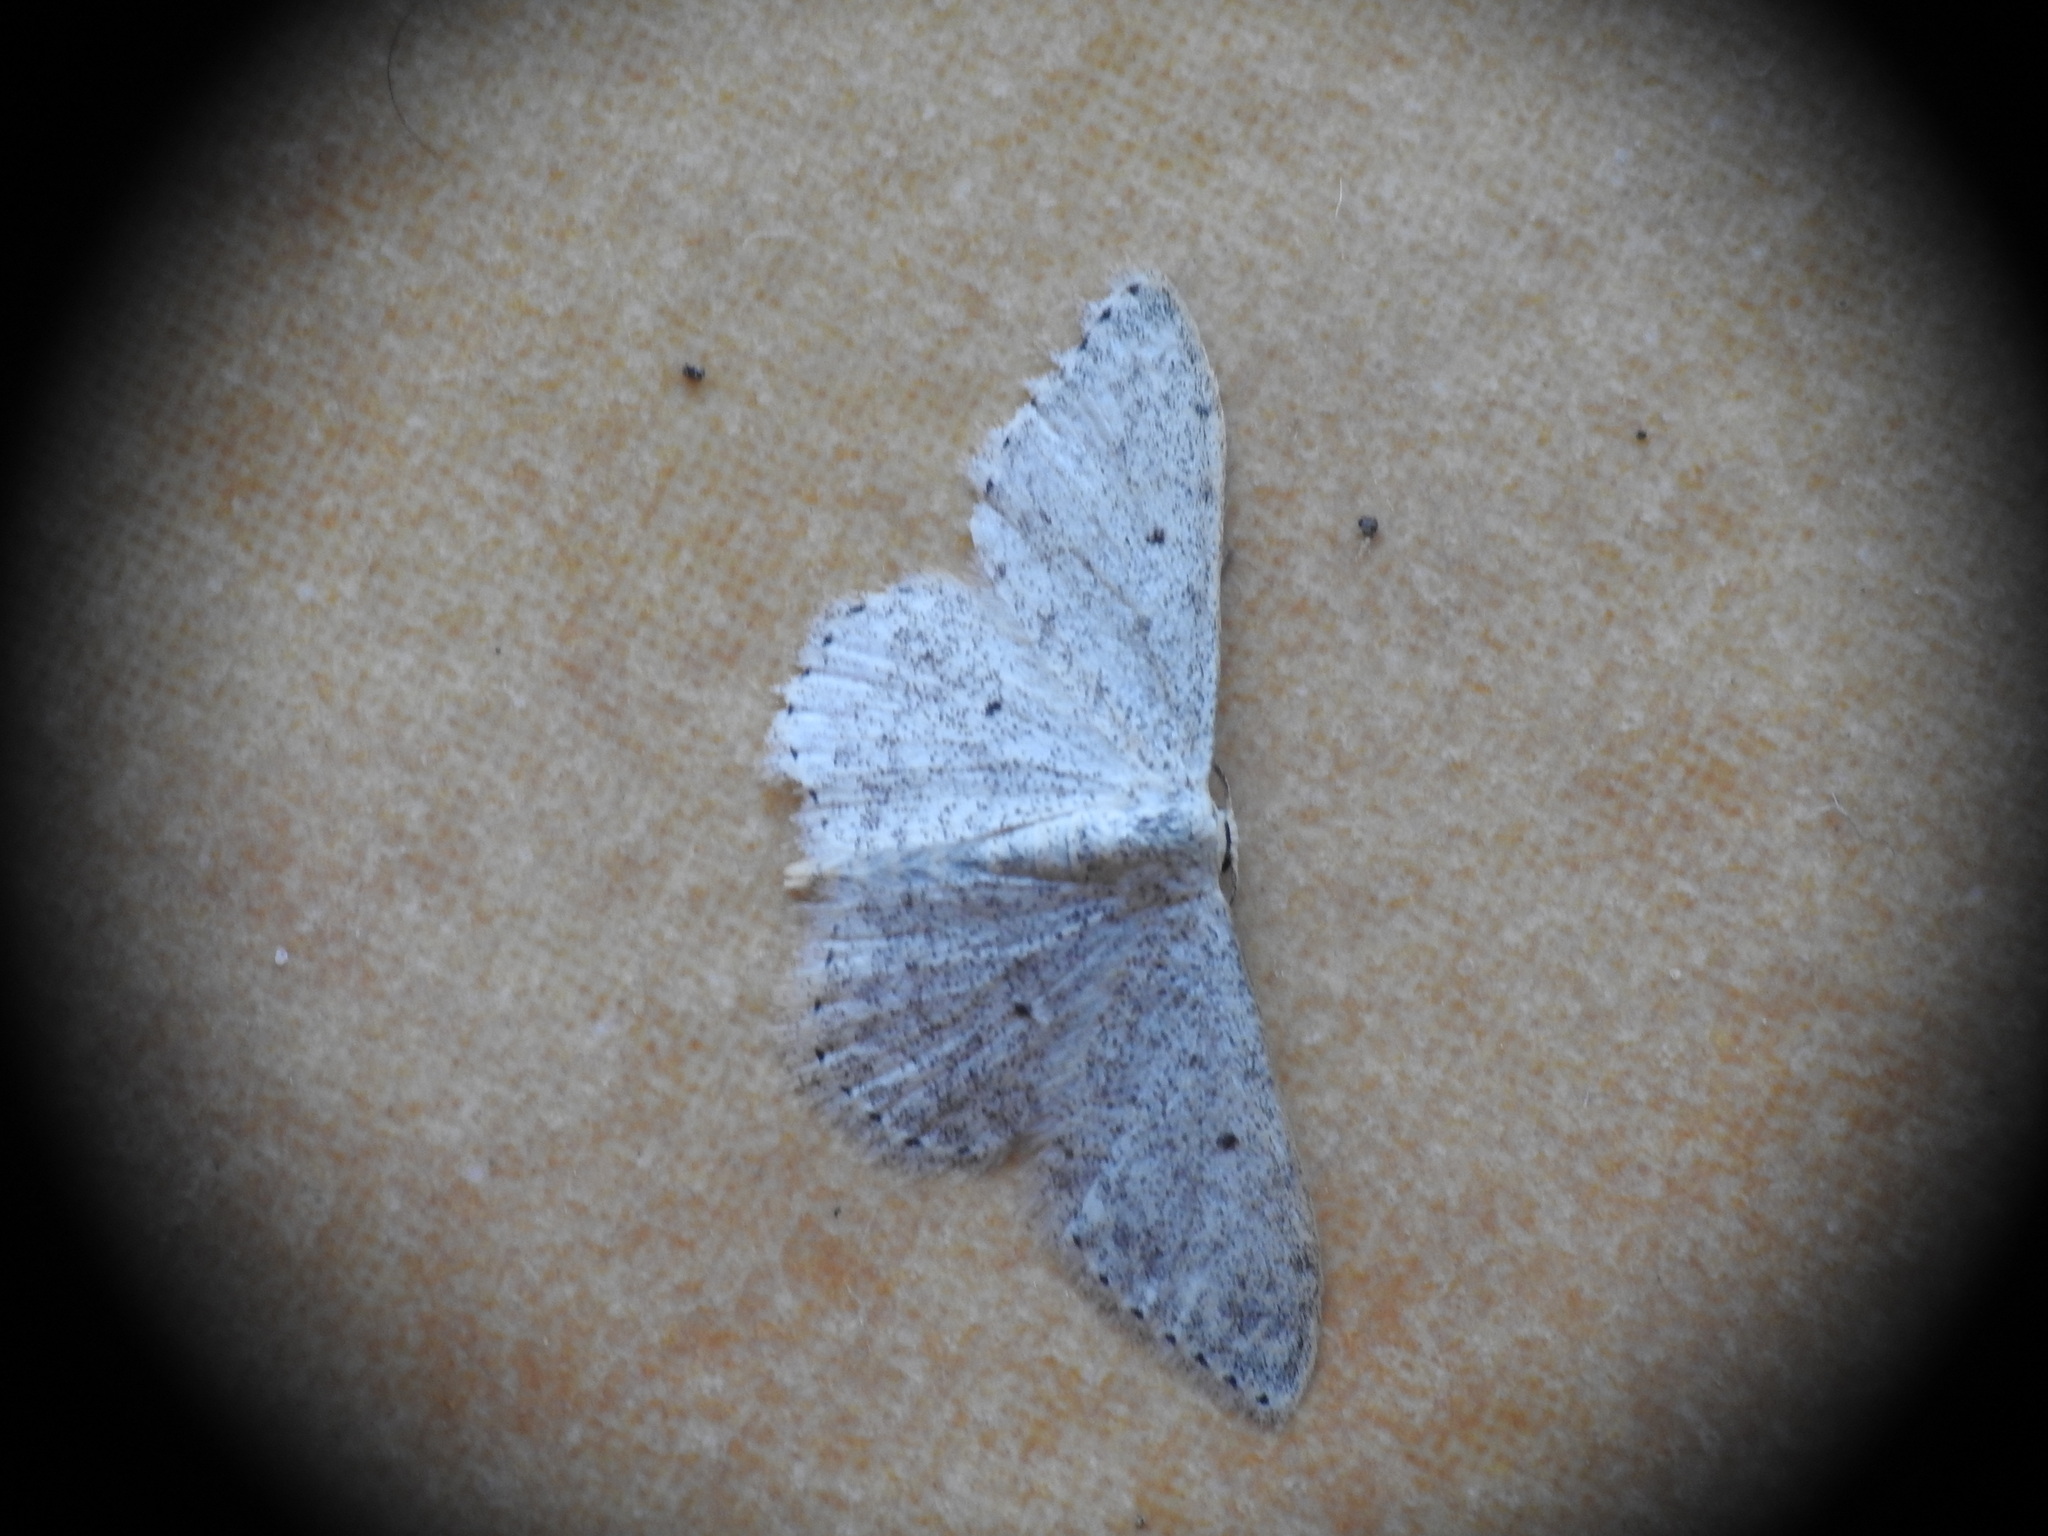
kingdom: Animalia
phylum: Arthropoda
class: Insecta
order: Lepidoptera
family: Geometridae
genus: Scopula
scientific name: Scopula marginepunctata
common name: Mullein wave
